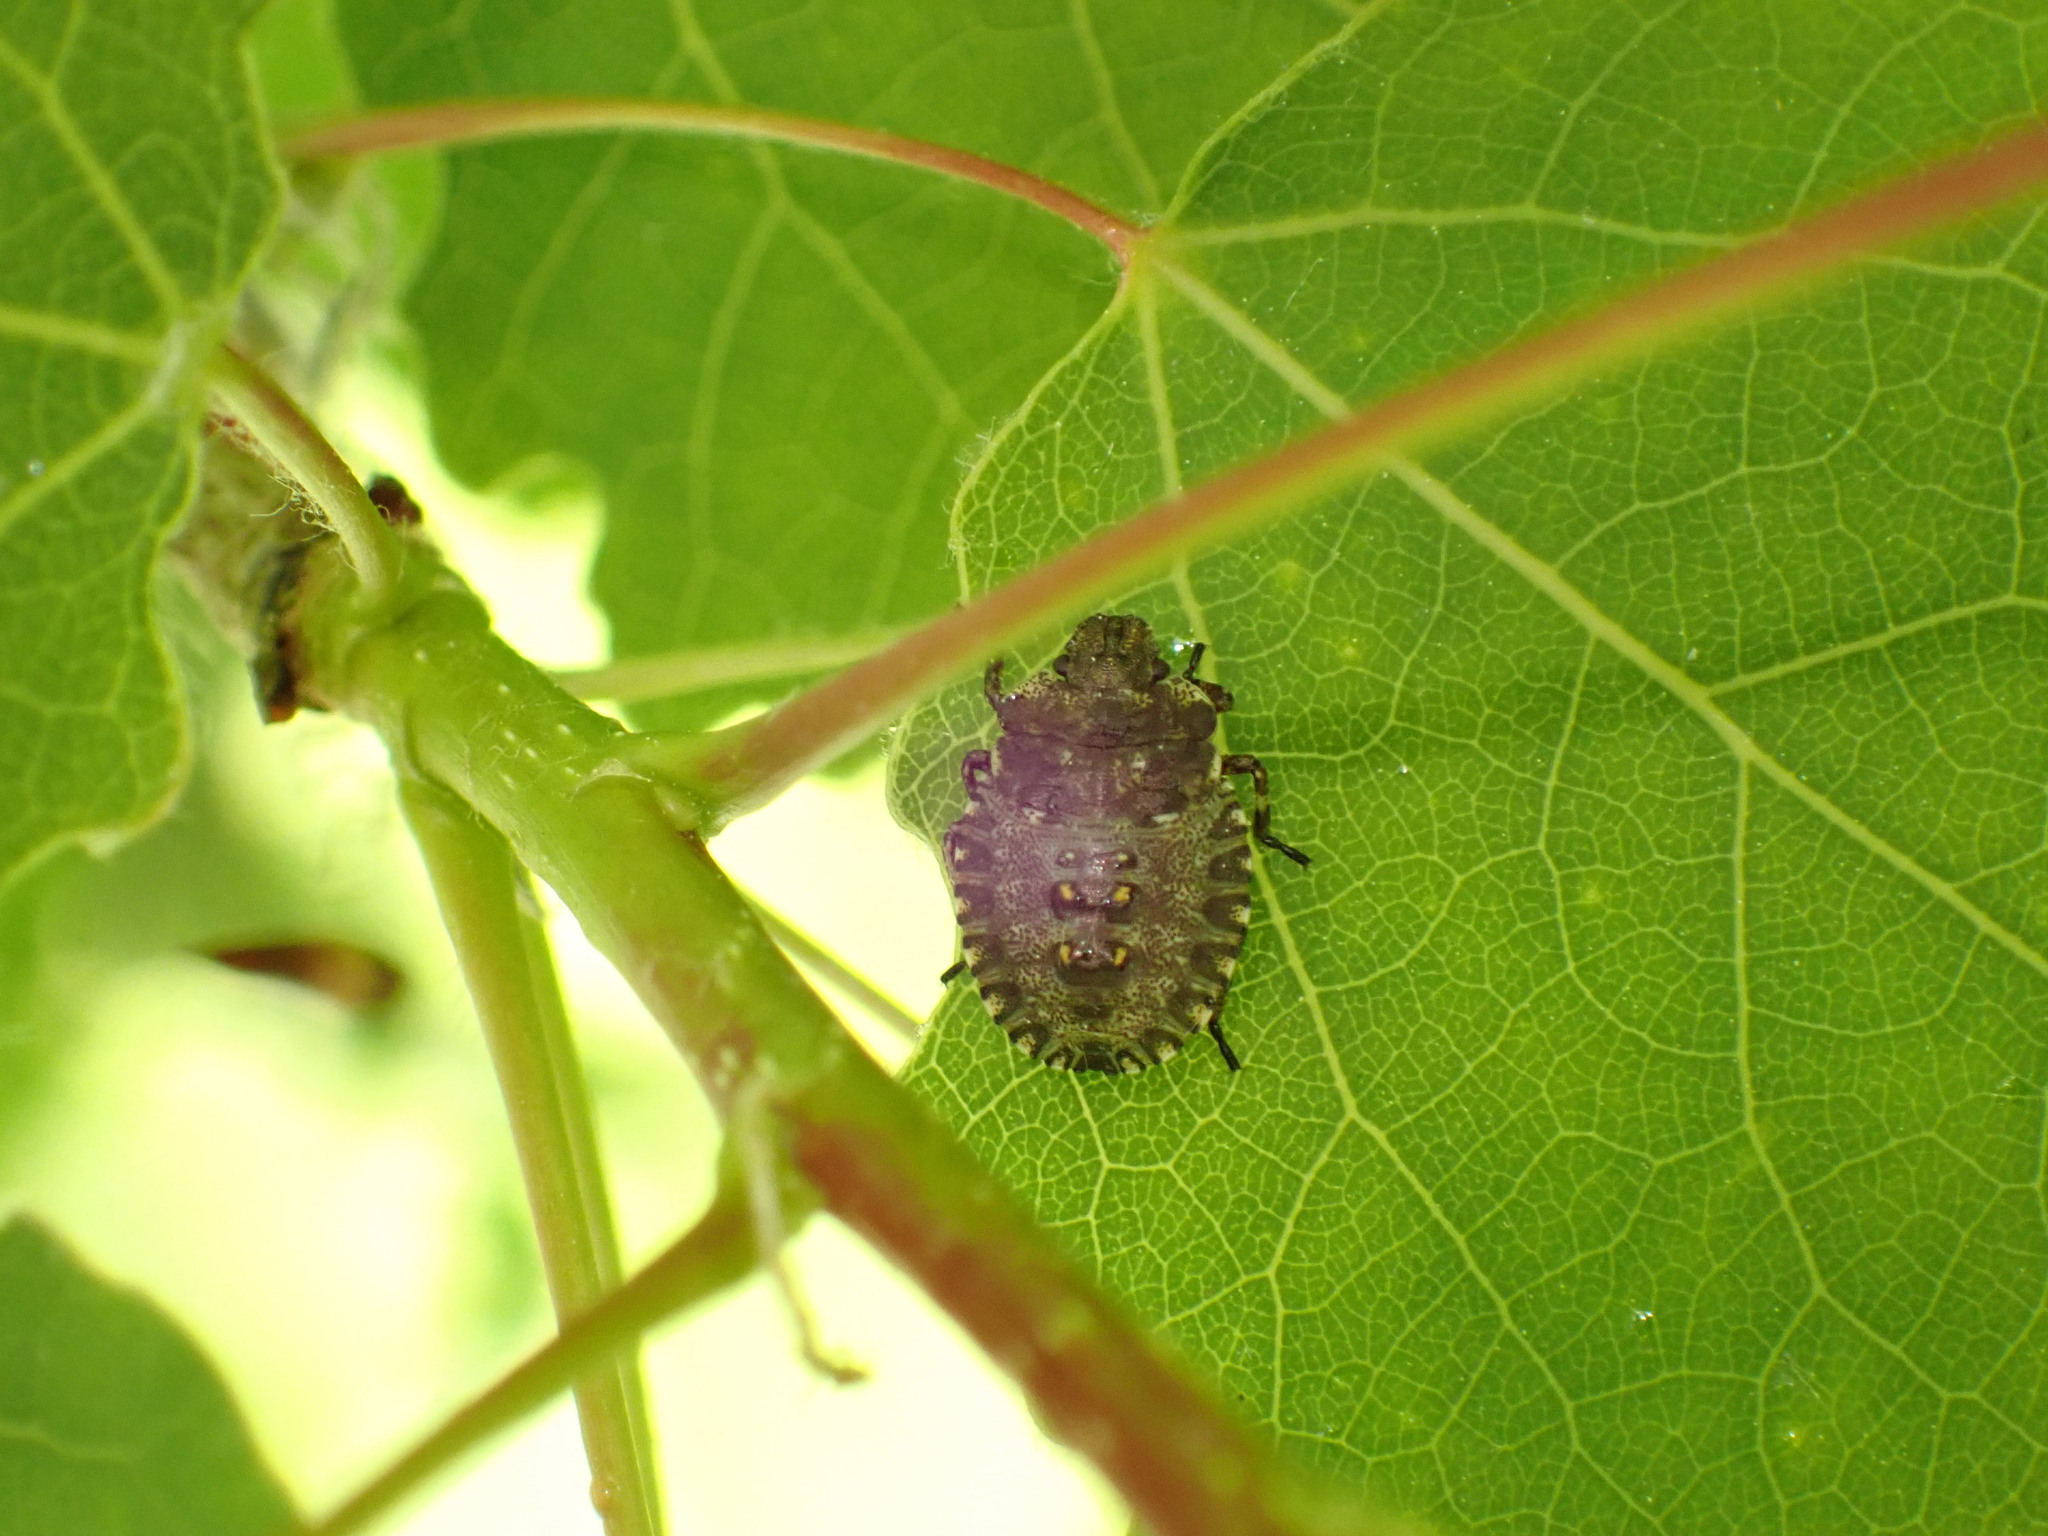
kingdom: Animalia
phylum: Arthropoda
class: Insecta
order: Hemiptera
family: Pentatomidae
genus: Pentatoma
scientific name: Pentatoma rufipes
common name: Forest bug
